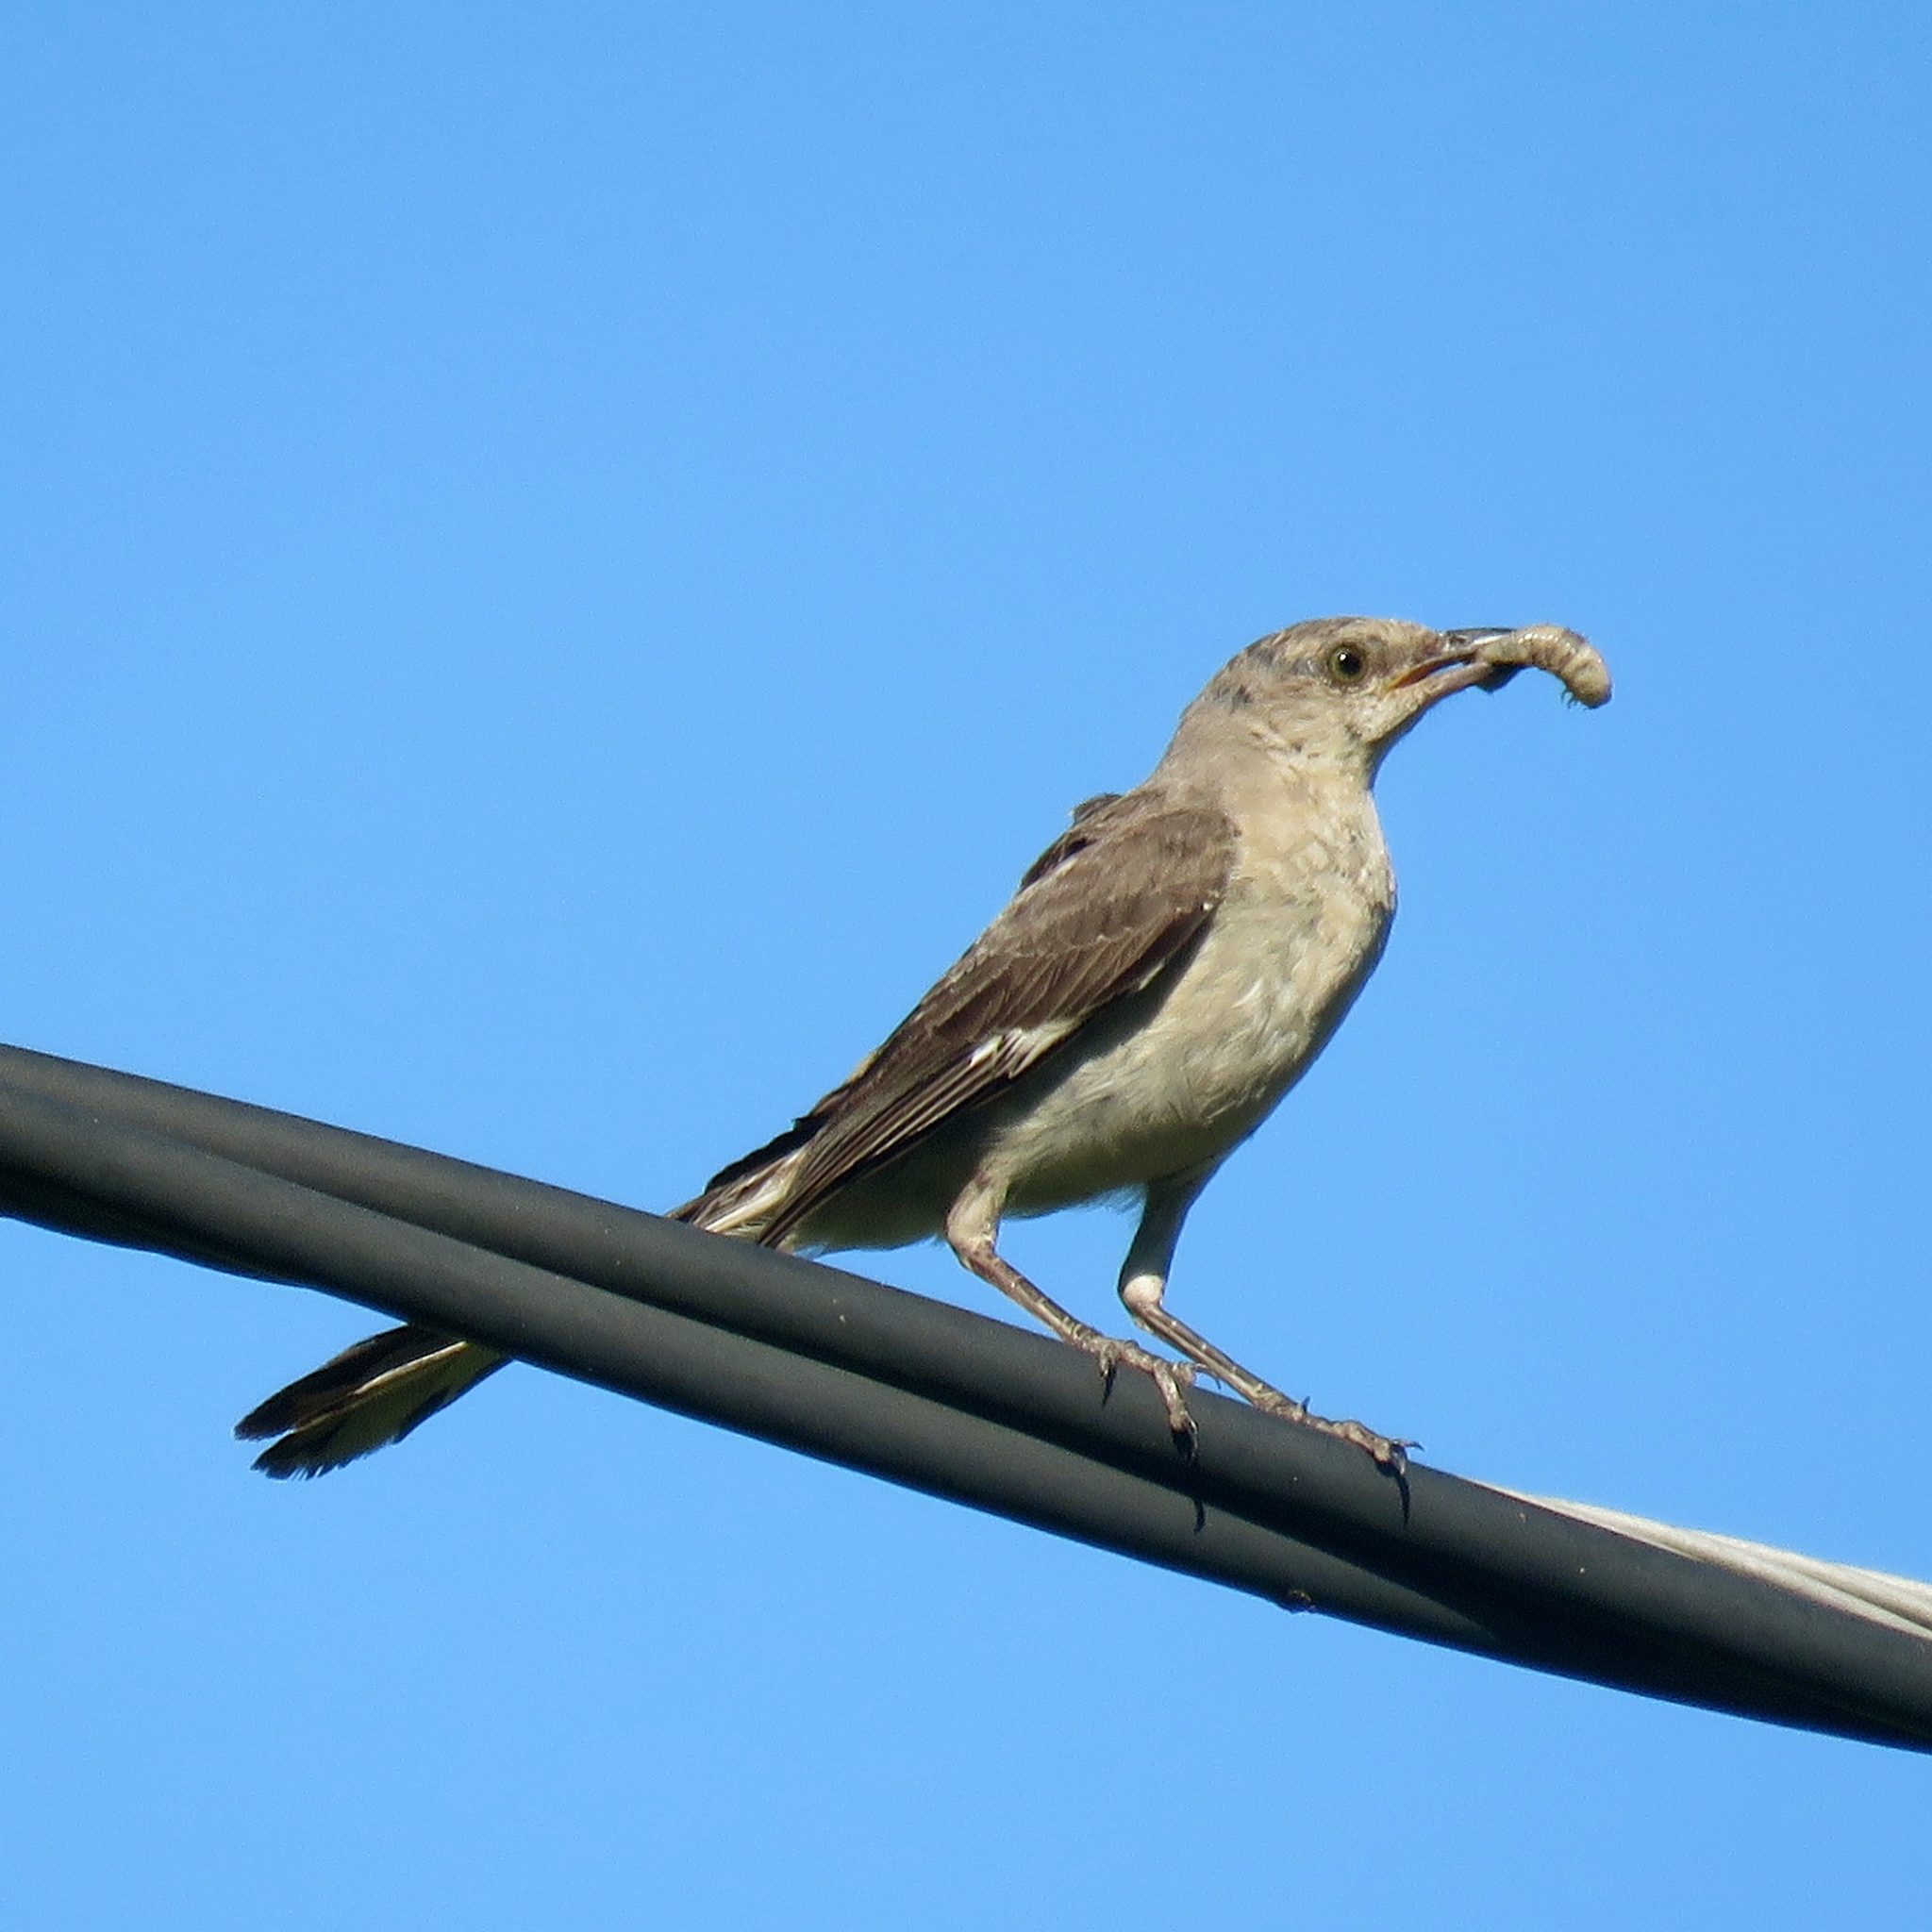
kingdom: Animalia
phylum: Chordata
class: Aves
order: Passeriformes
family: Mimidae
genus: Mimus
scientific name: Mimus polyglottos
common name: Northern mockingbird
